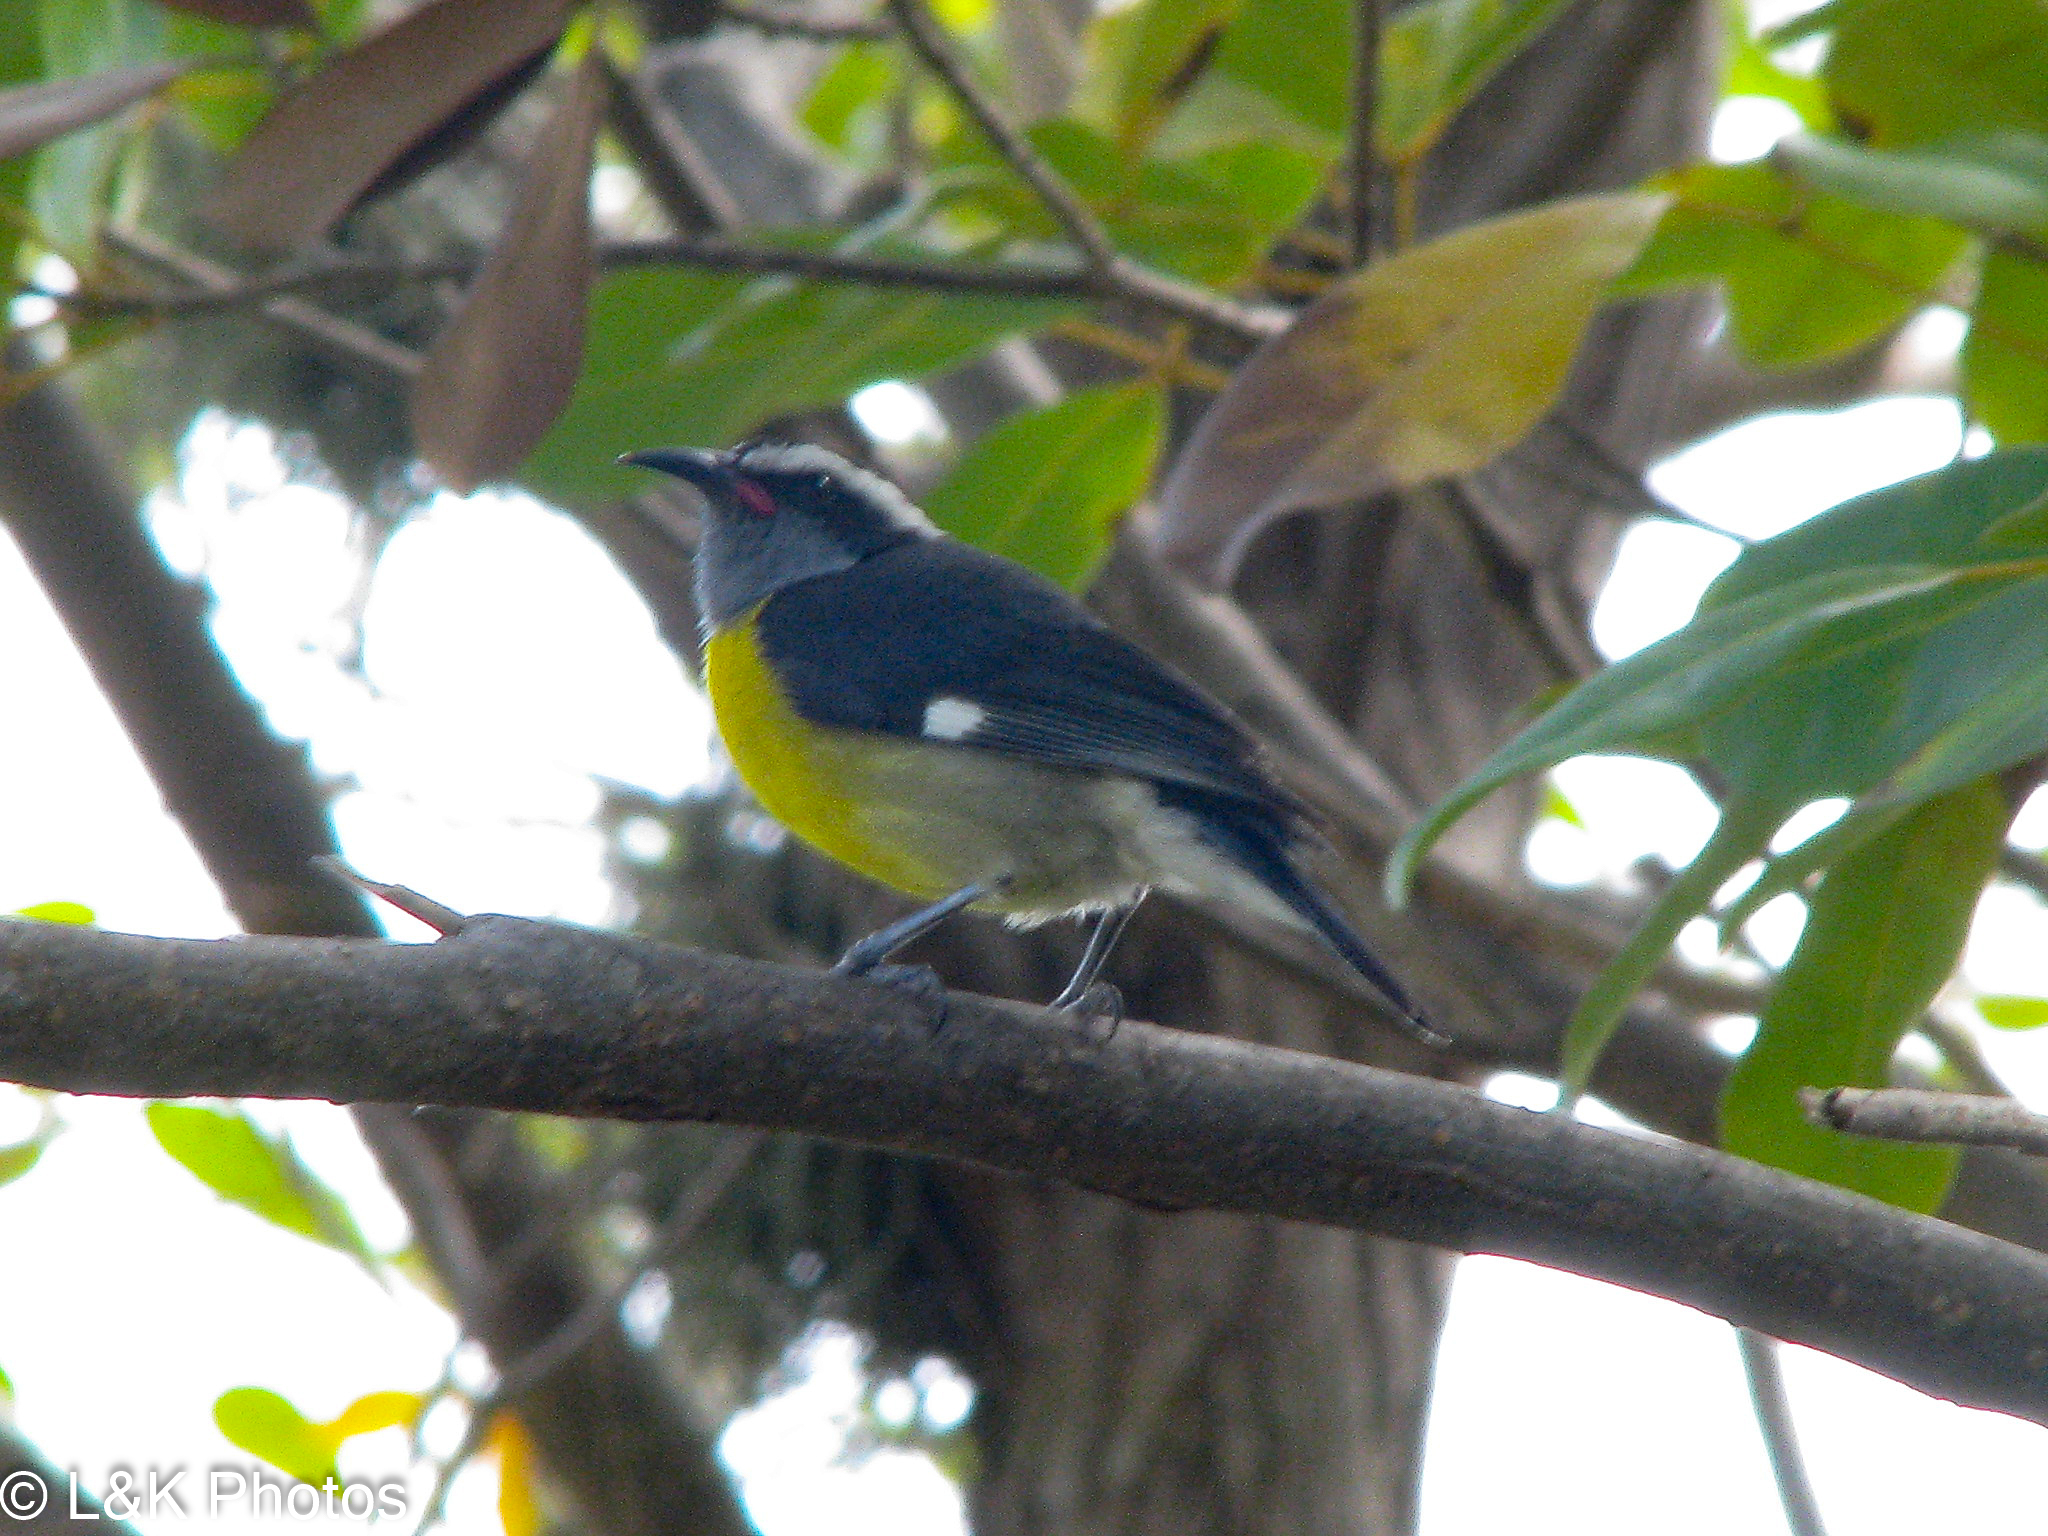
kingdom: Animalia
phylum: Chordata
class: Aves
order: Passeriformes
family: Thraupidae
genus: Coereba
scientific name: Coereba flaveola
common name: Bananaquit
